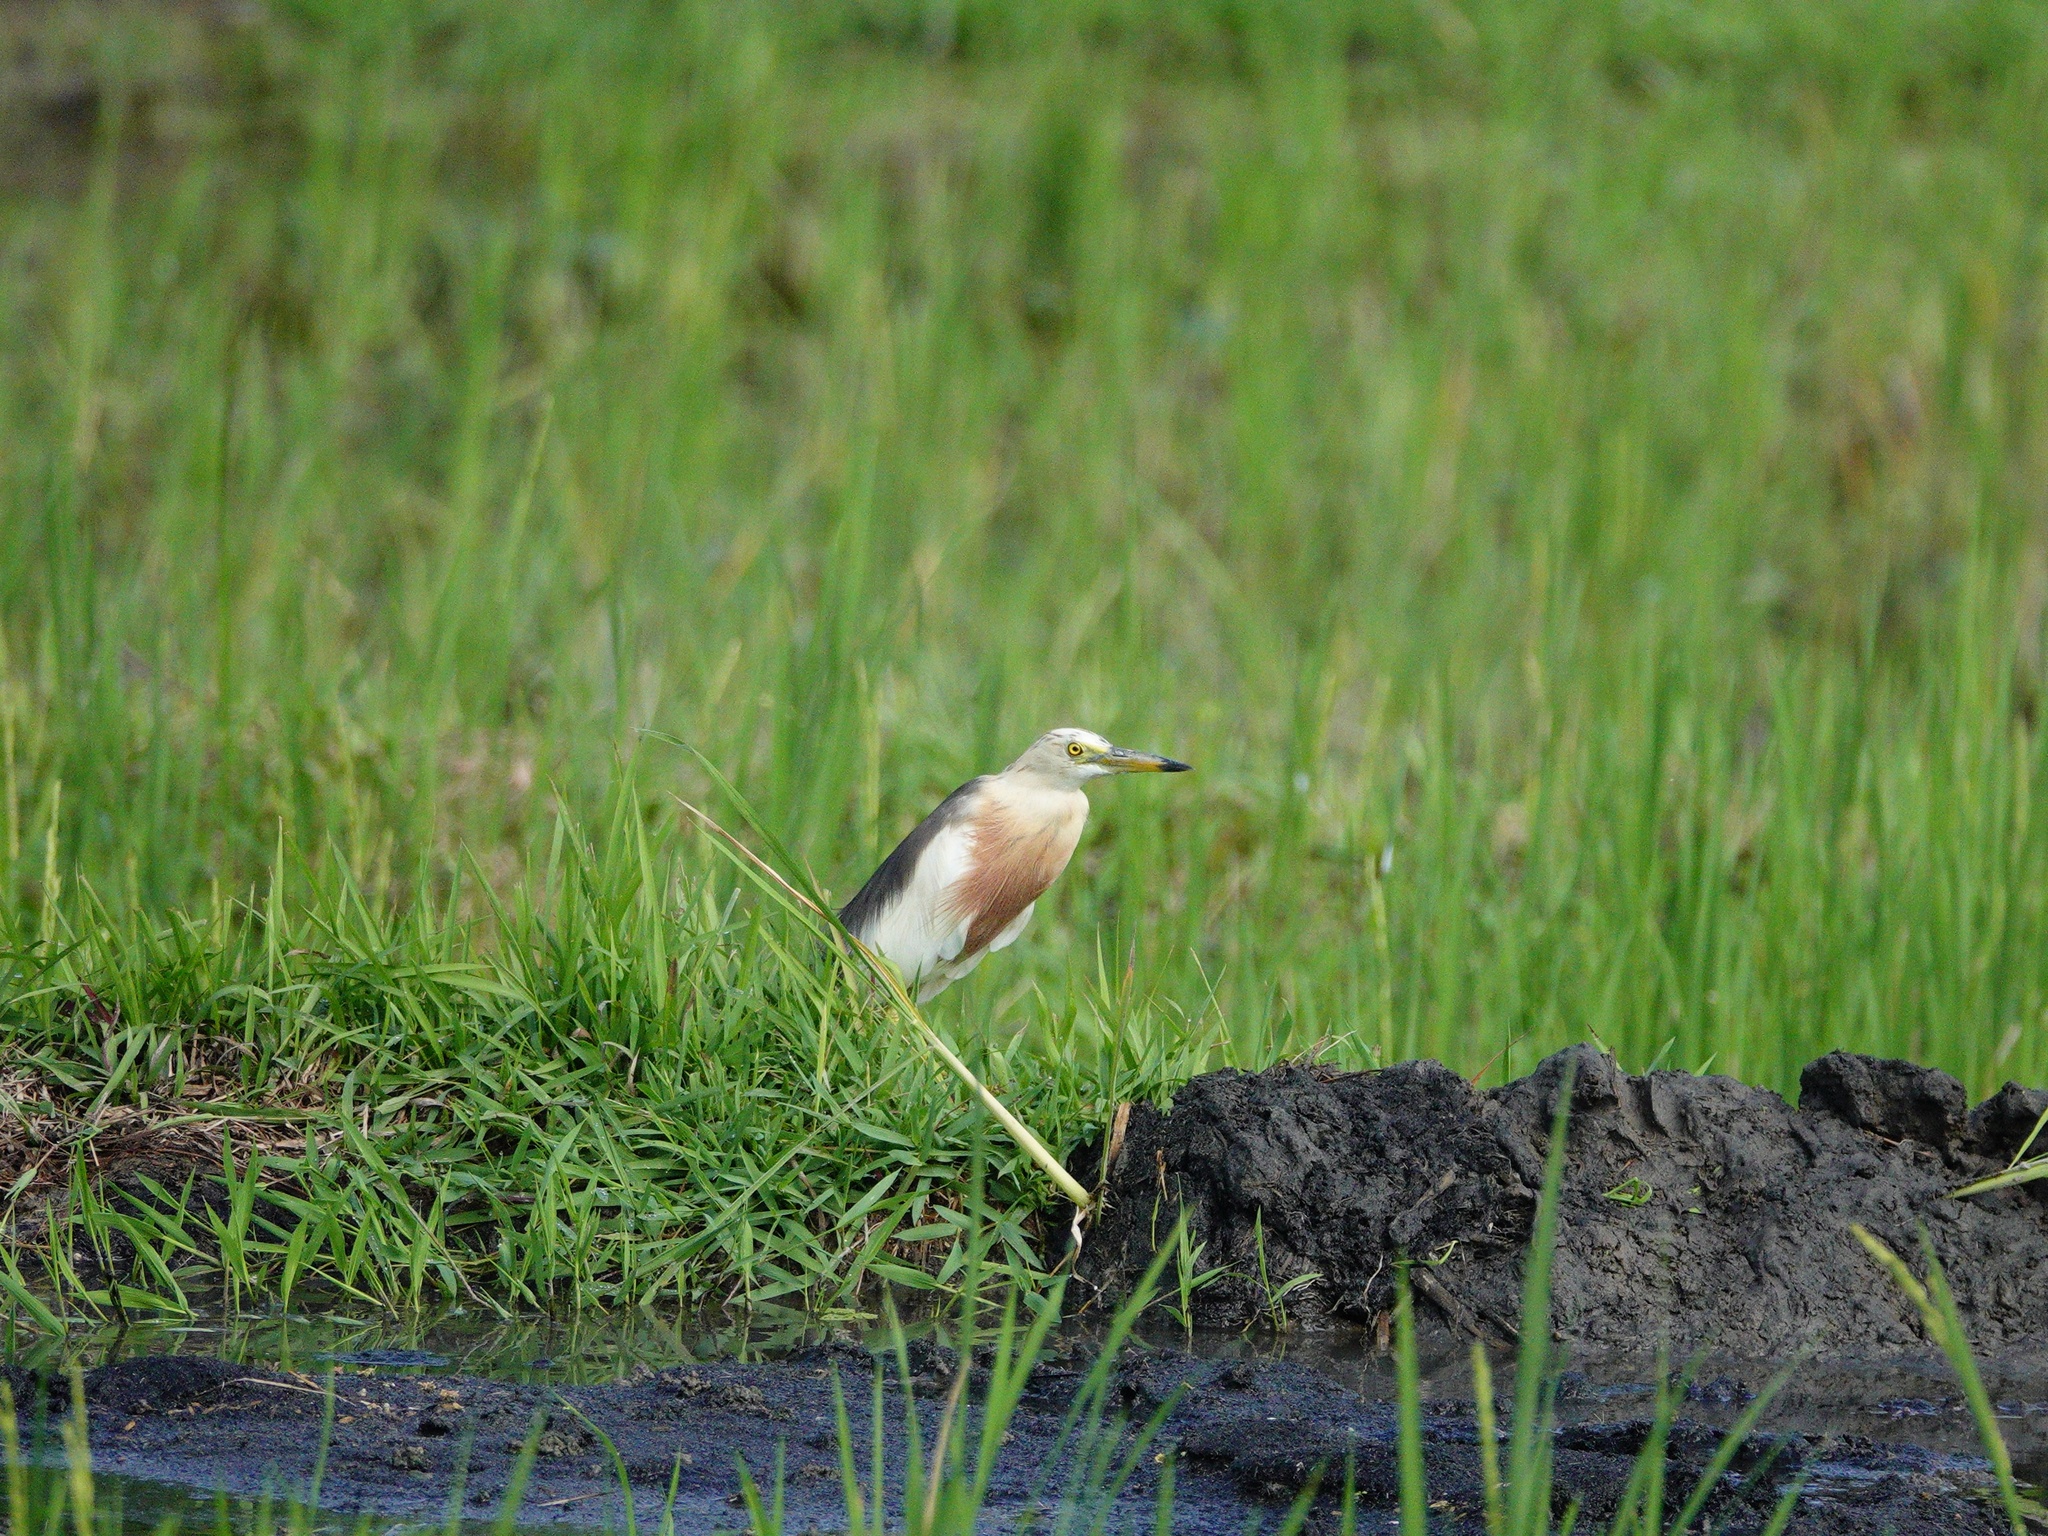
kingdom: Animalia
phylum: Chordata
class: Aves
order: Pelecaniformes
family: Ardeidae
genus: Ardeola
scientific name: Ardeola speciosa
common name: Javan pond heron
